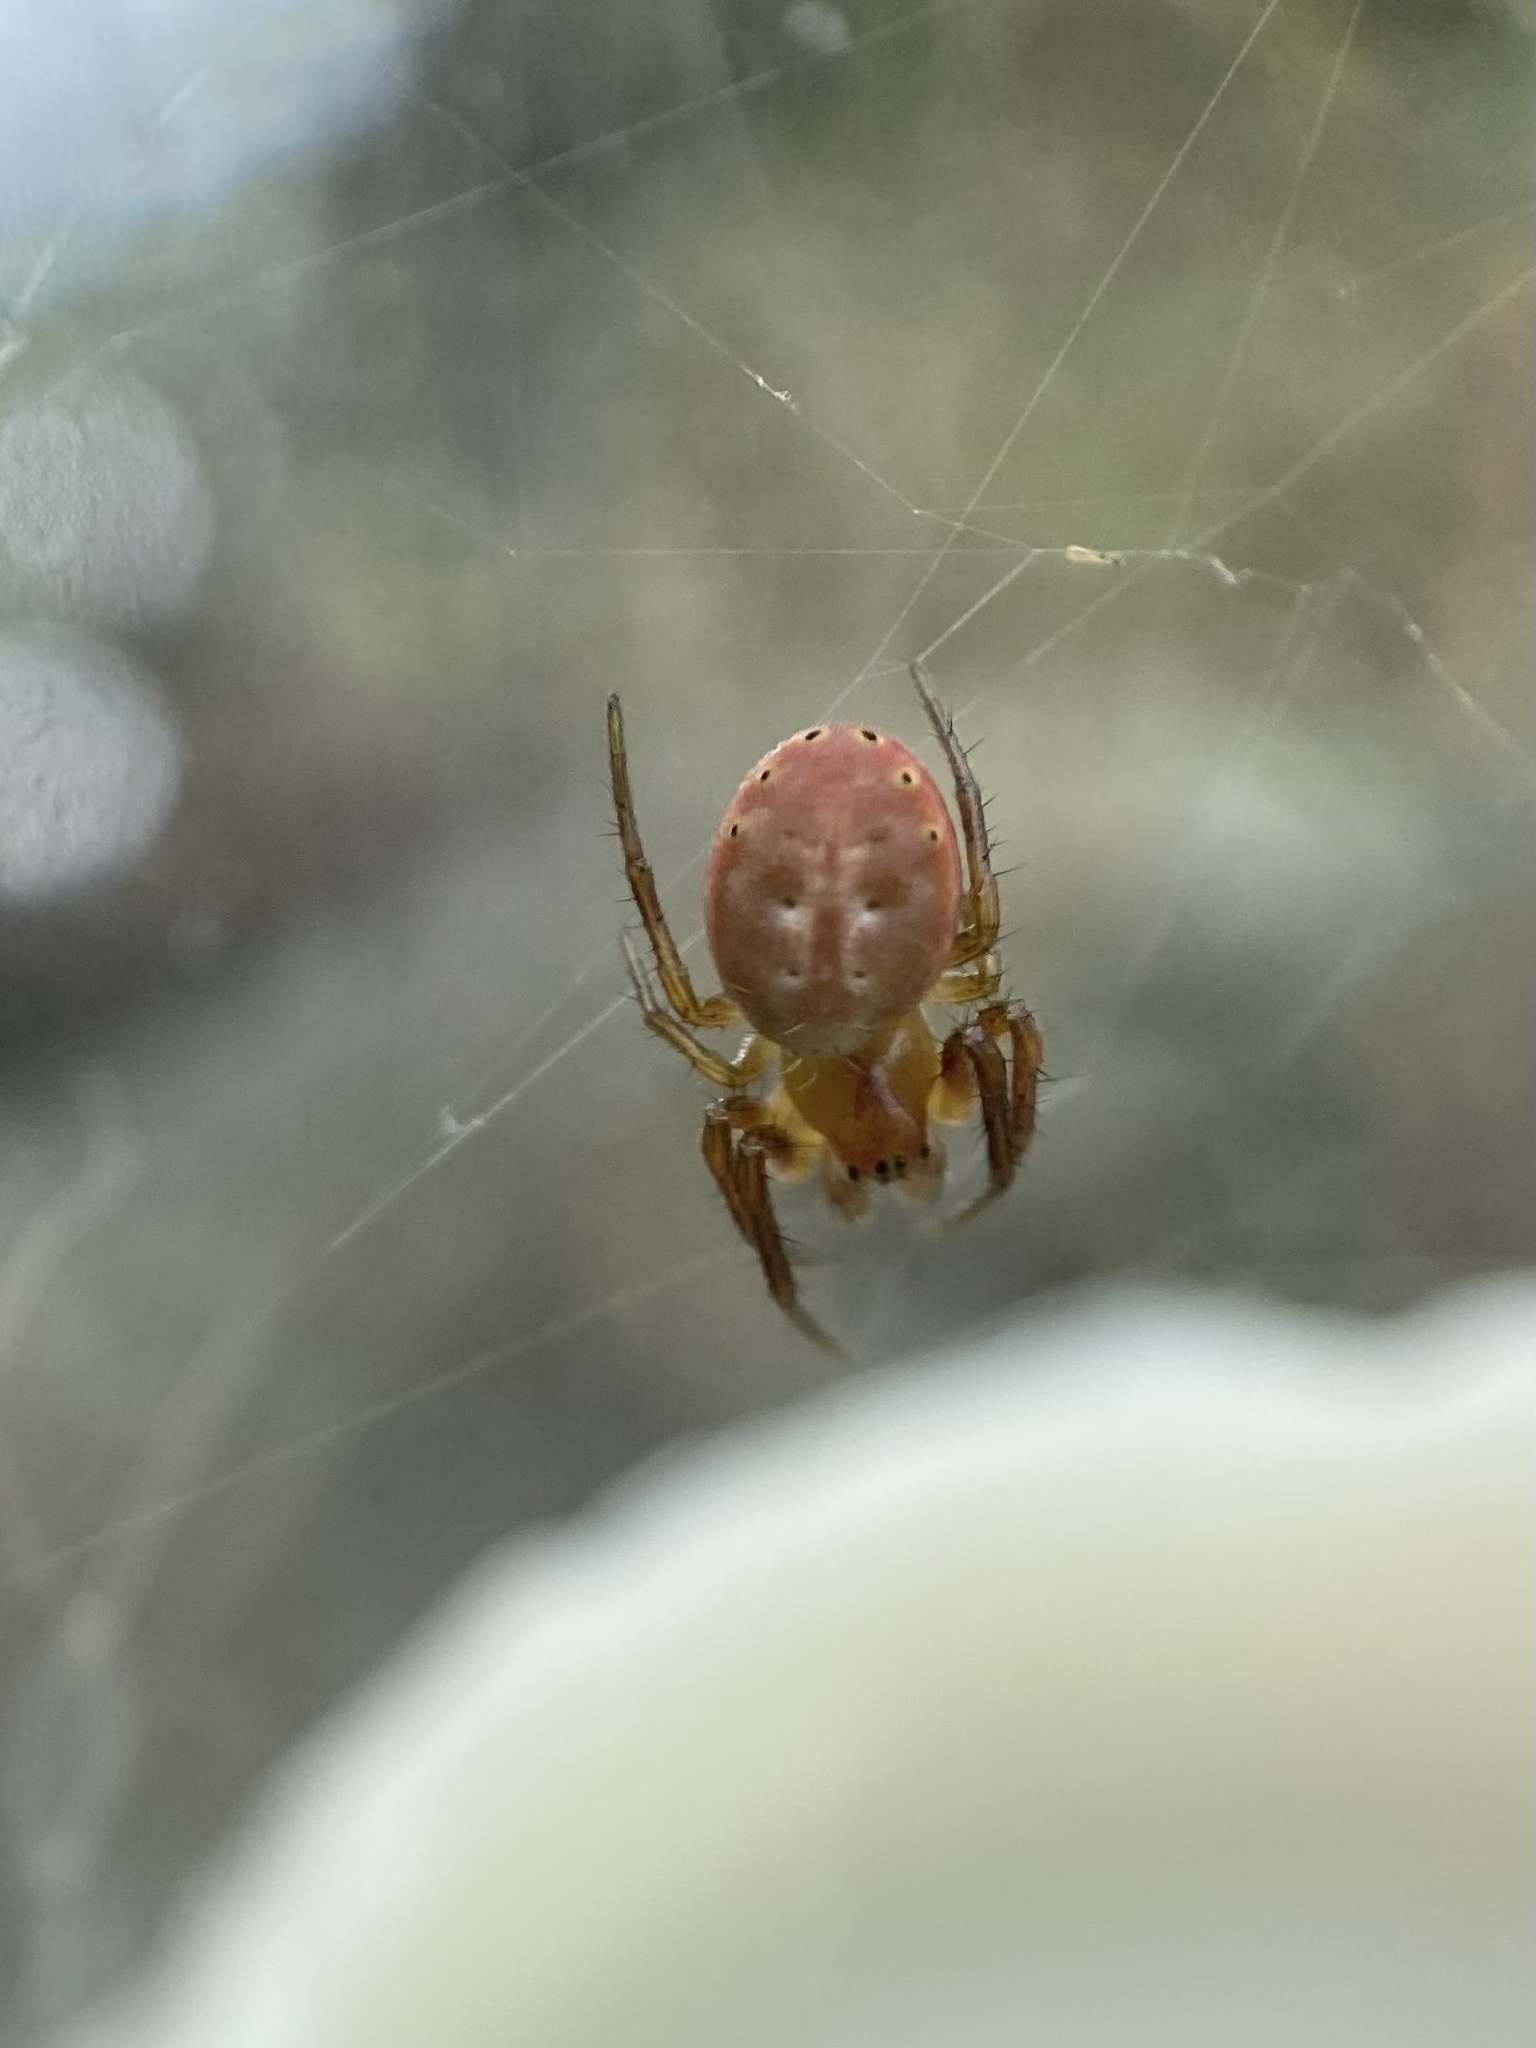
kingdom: Animalia
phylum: Arthropoda
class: Arachnida
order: Araneae
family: Araneidae
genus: Araniella
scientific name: Araniella displicata
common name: Sixspotted orb weaver
